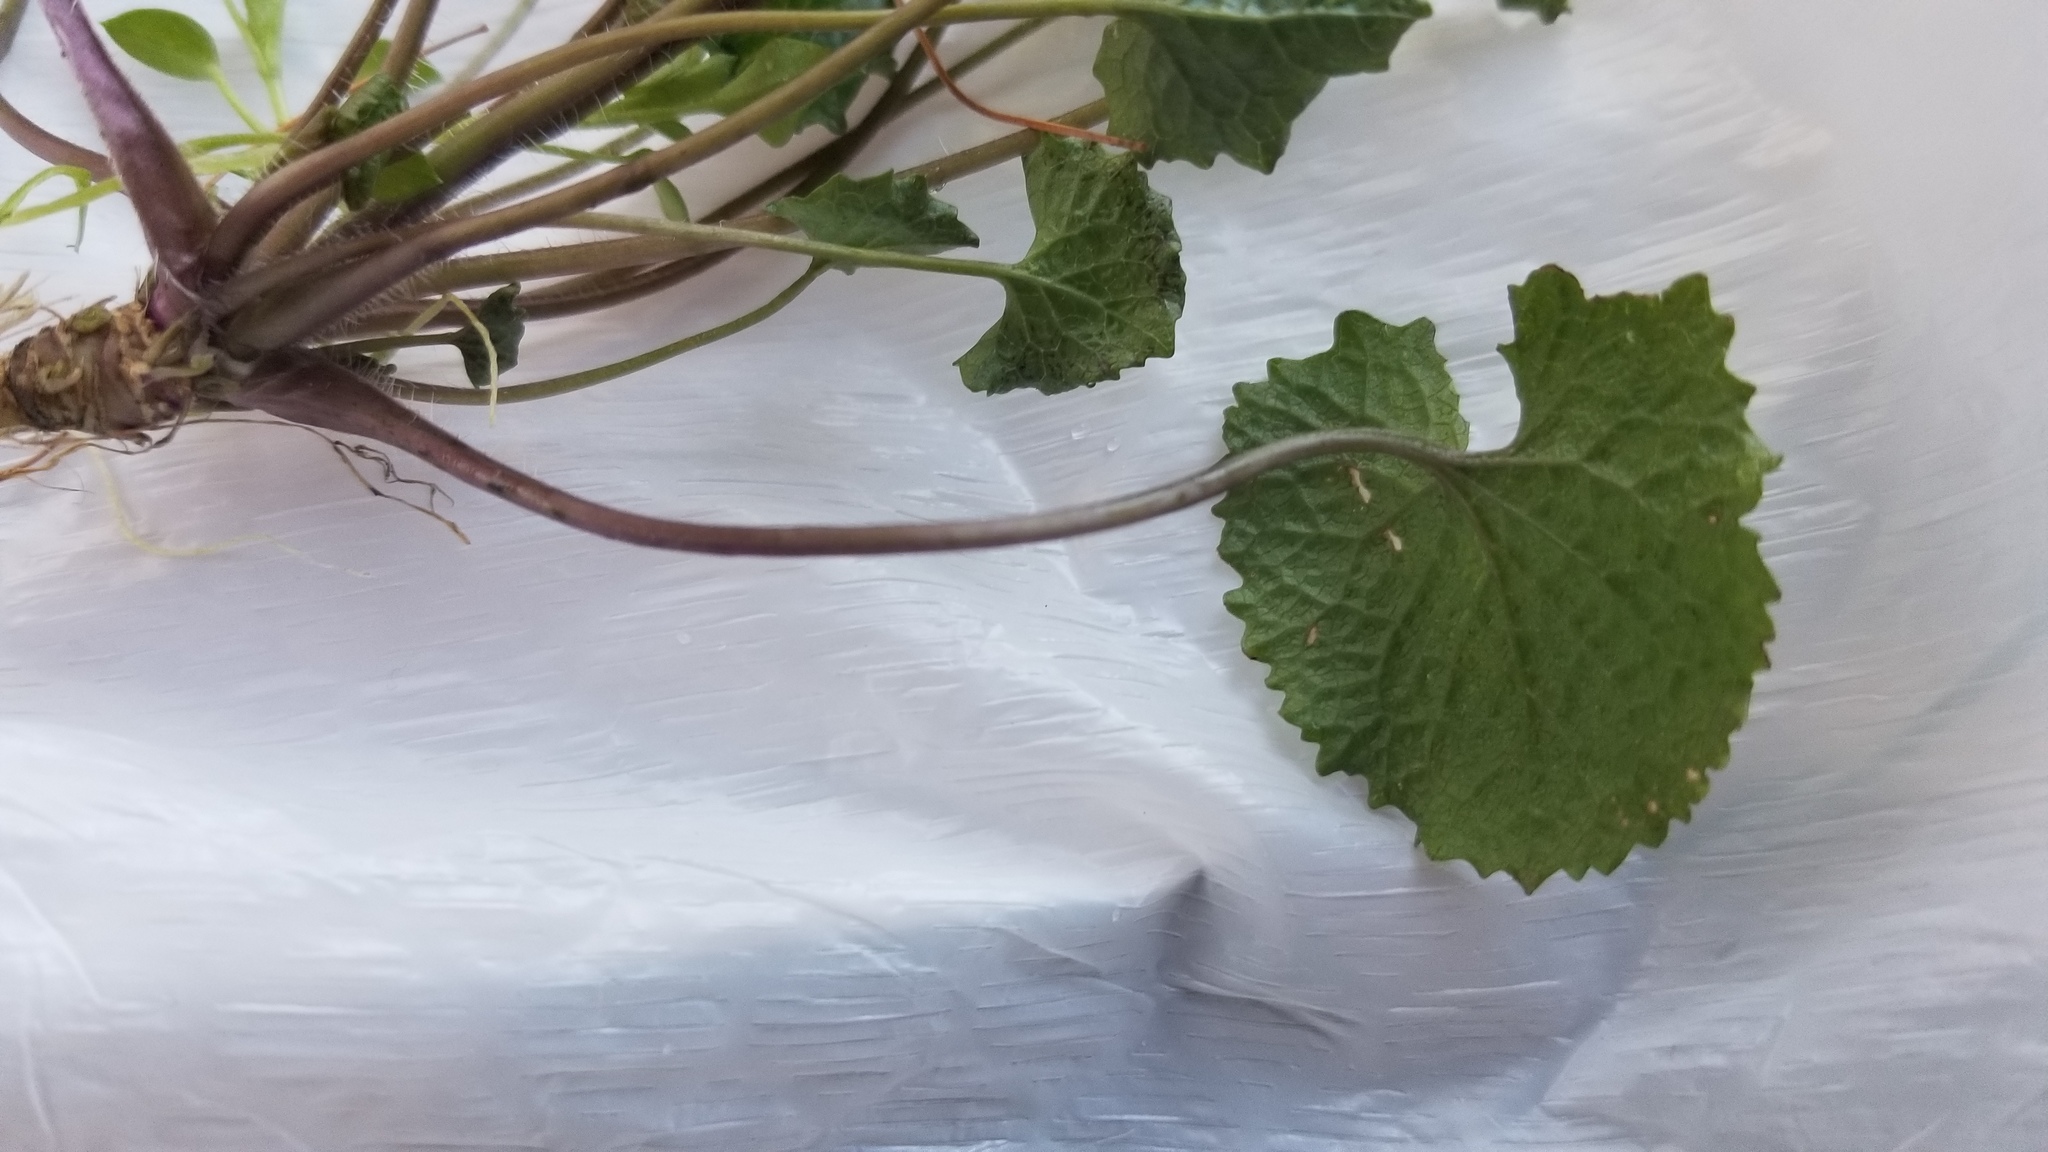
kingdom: Plantae
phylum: Tracheophyta
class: Magnoliopsida
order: Brassicales
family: Brassicaceae
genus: Alliaria
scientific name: Alliaria petiolata
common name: Garlic mustard
